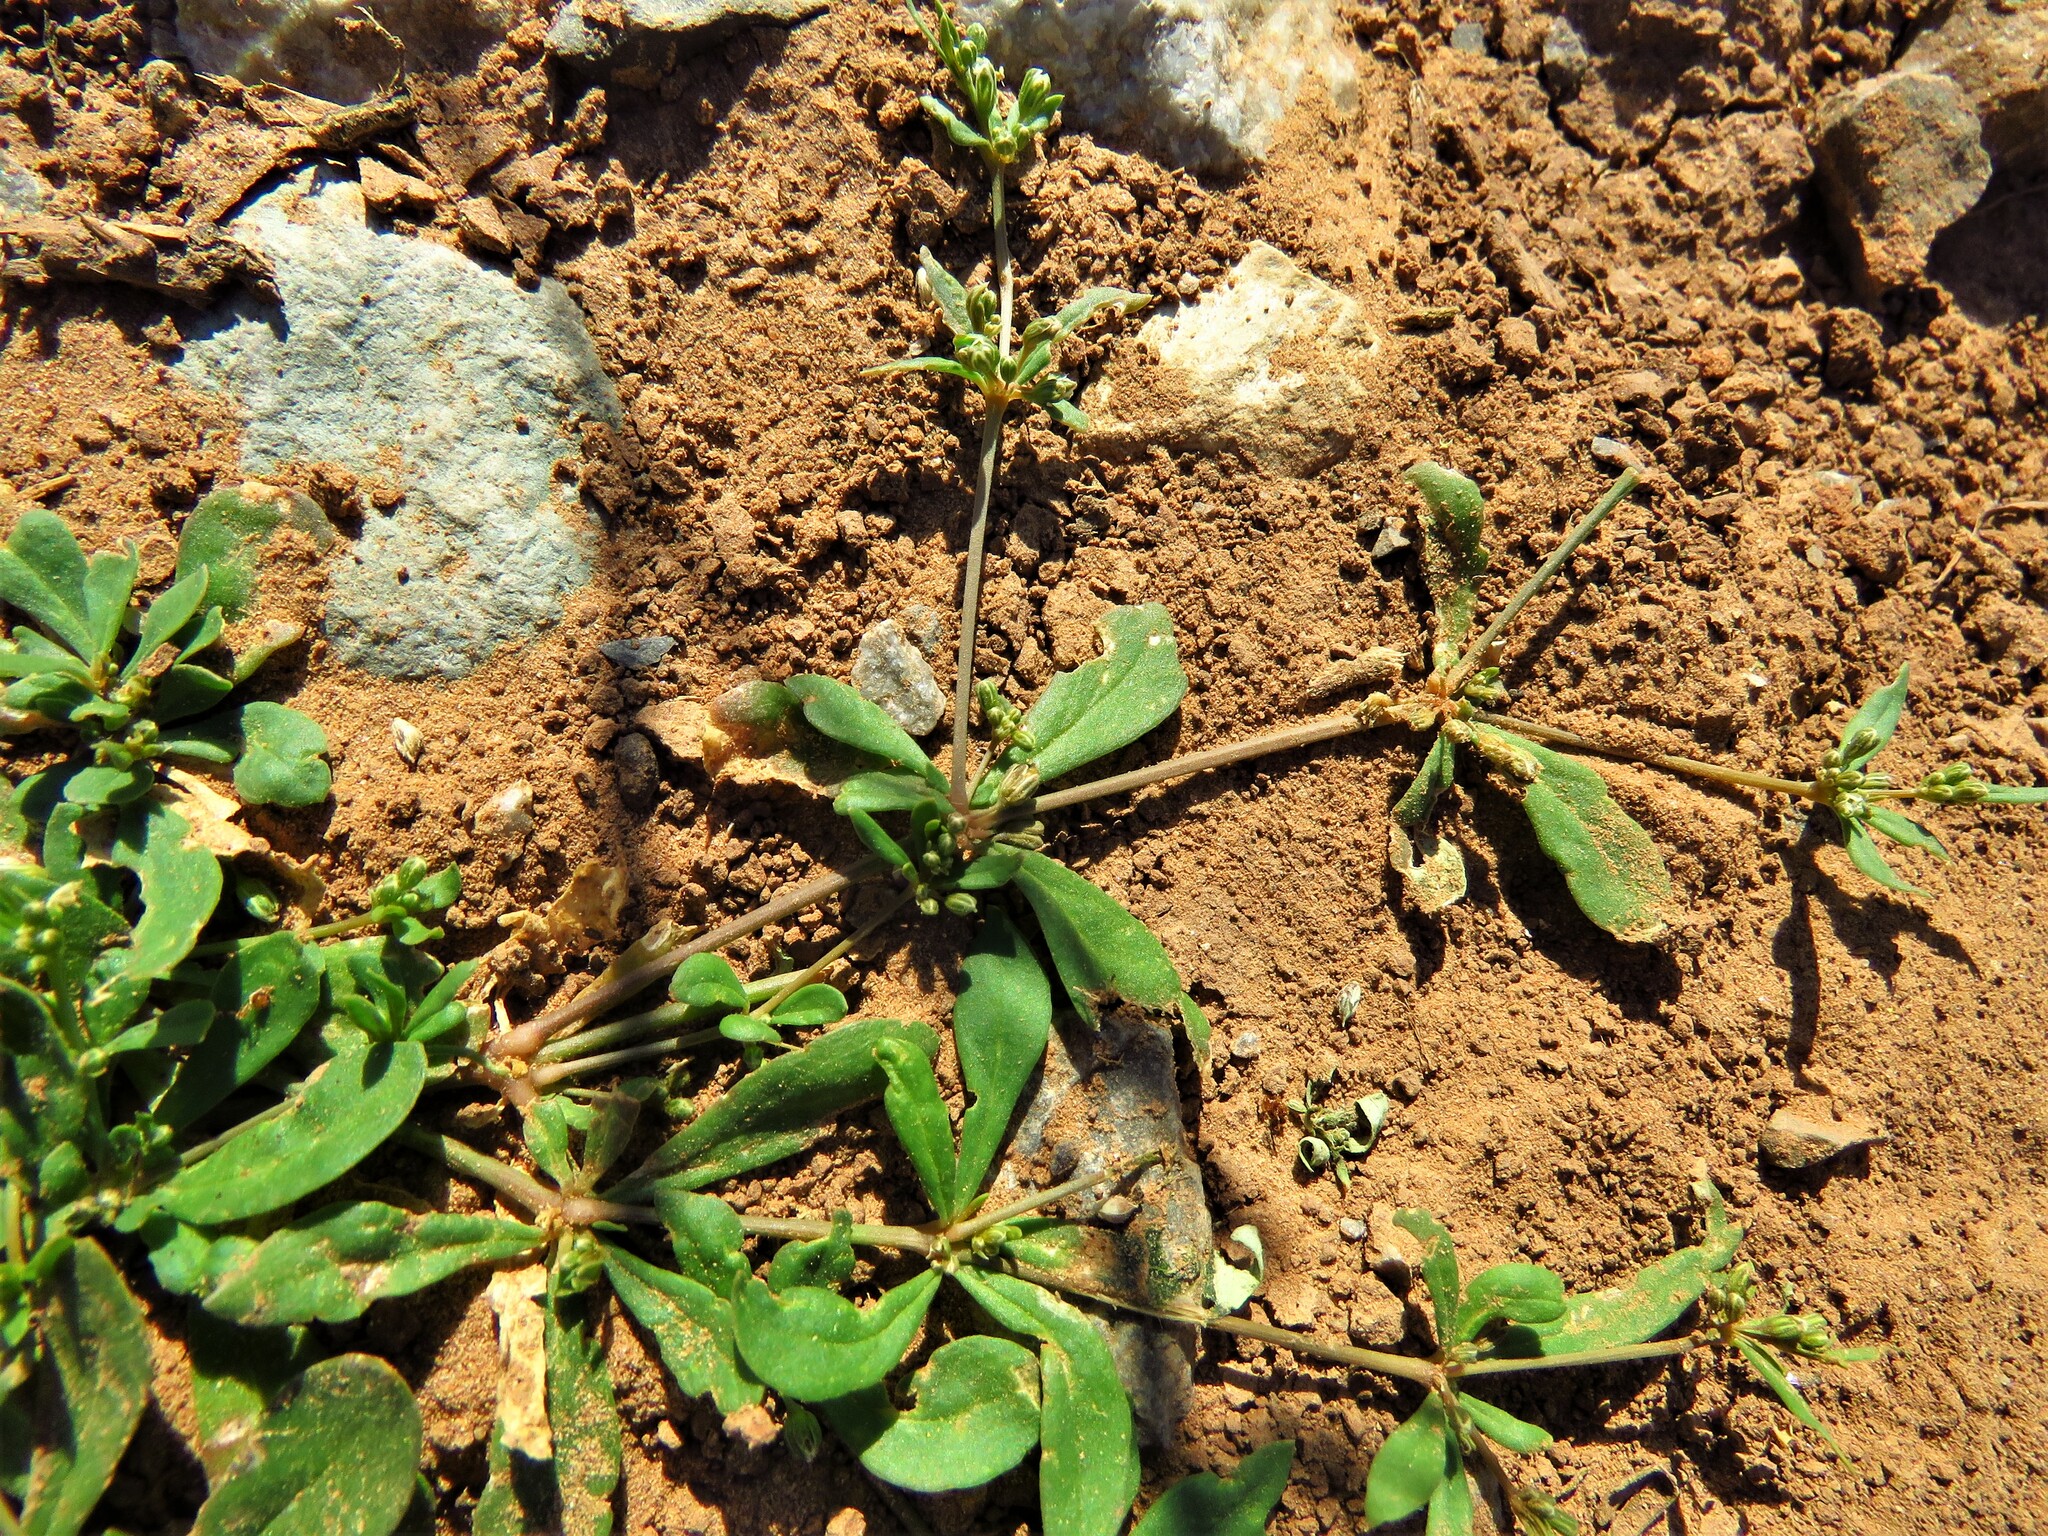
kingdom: Plantae
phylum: Tracheophyta
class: Magnoliopsida
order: Caryophyllales
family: Molluginaceae
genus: Mollugo
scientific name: Mollugo verticillata
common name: Green carpetweed
